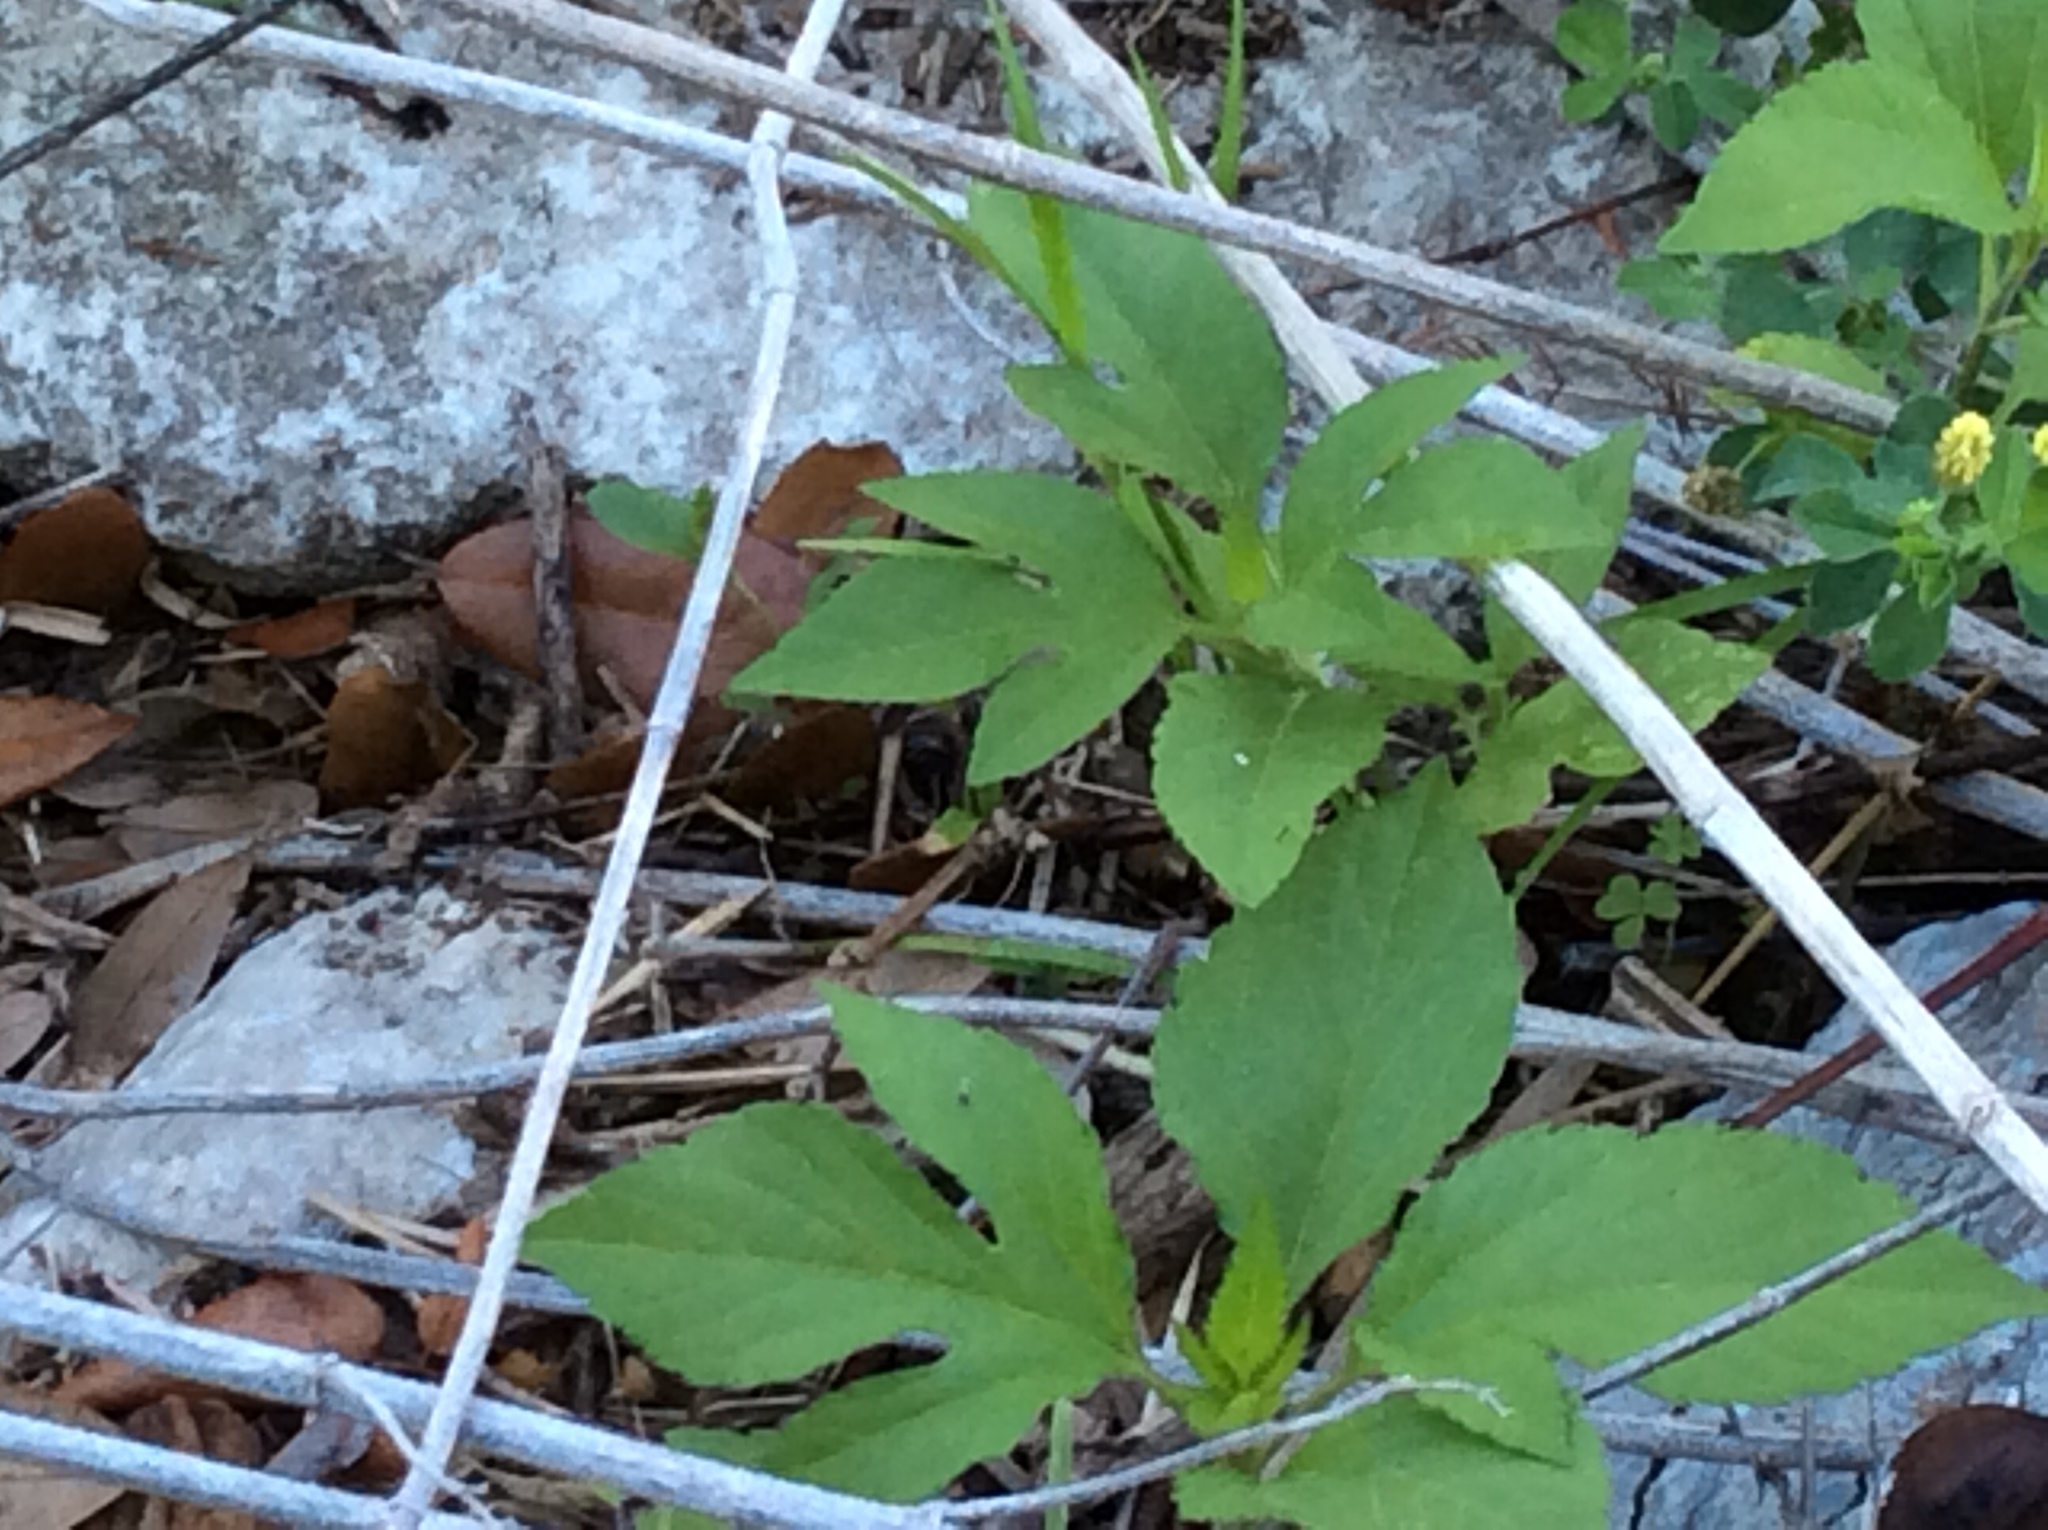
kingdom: Plantae
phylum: Tracheophyta
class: Magnoliopsida
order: Asterales
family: Asteraceae
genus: Ambrosia
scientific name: Ambrosia trifida
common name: Giant ragweed
